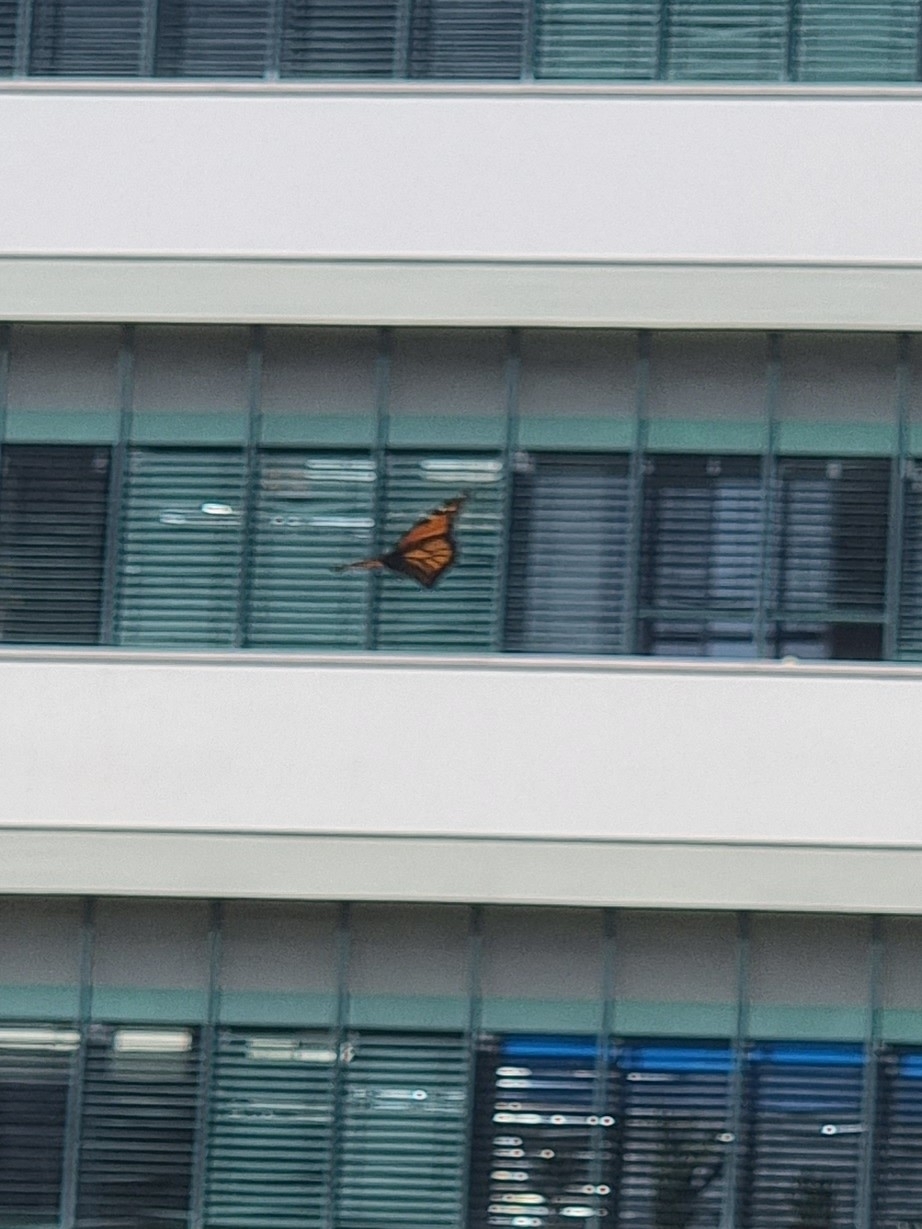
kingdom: Animalia
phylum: Arthropoda
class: Insecta
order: Lepidoptera
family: Nymphalidae
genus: Danaus
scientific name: Danaus plexippus
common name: Monarch
